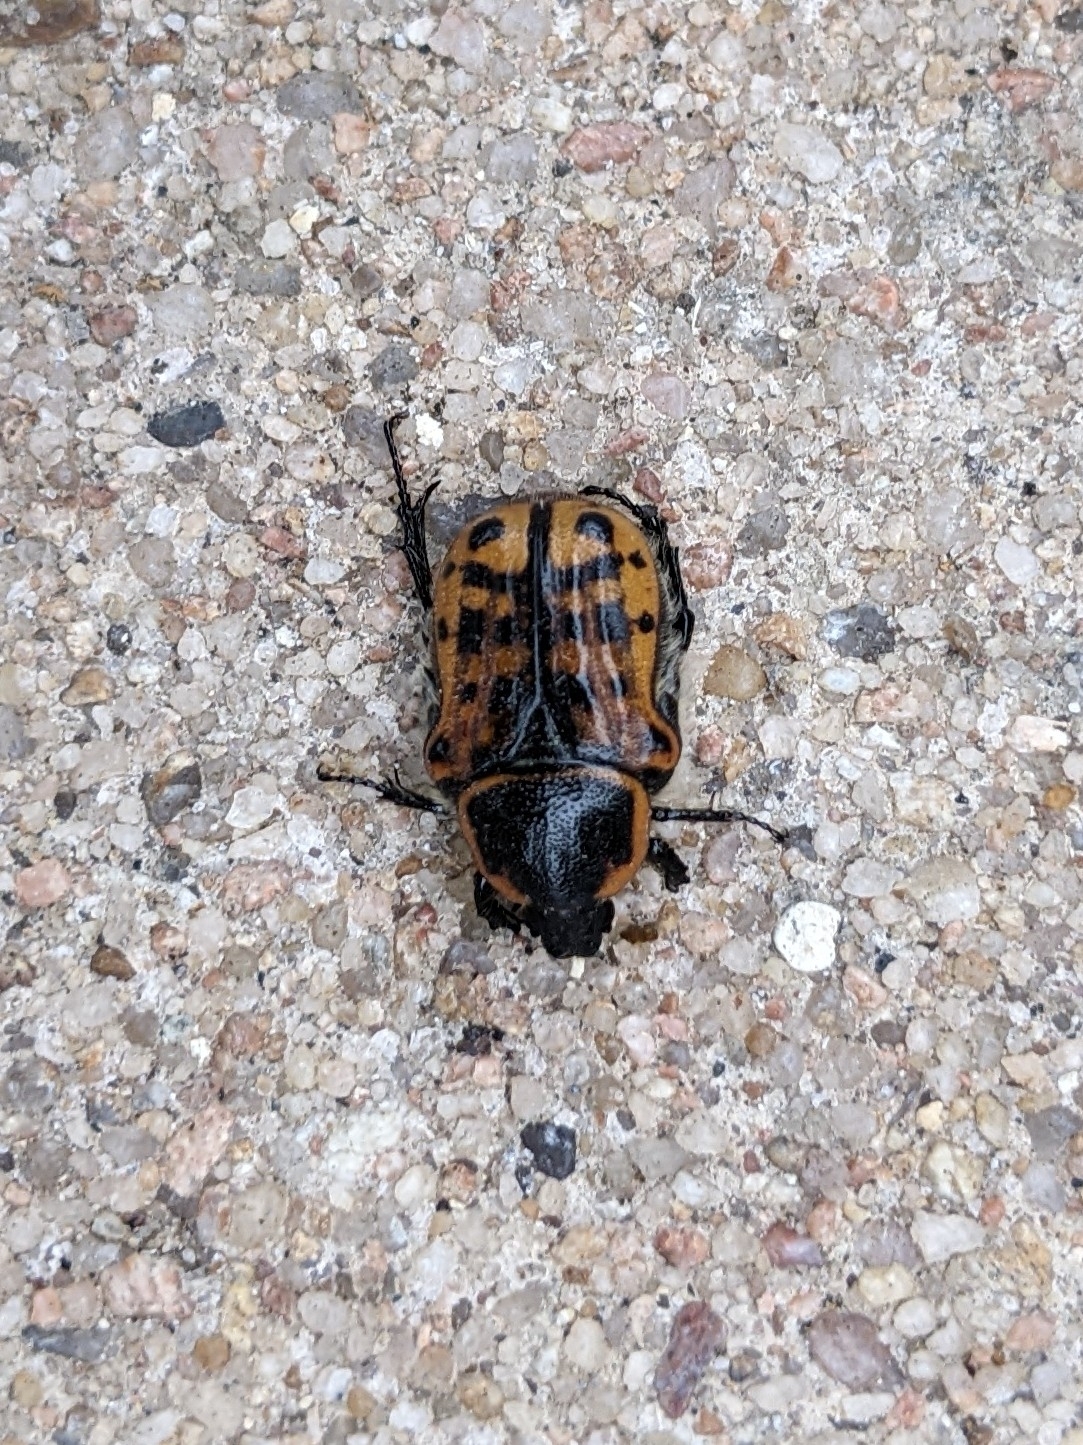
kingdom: Animalia
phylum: Arthropoda
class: Insecta
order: Coleoptera
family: Scarabaeidae
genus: Euphoria
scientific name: Euphoria kernii
